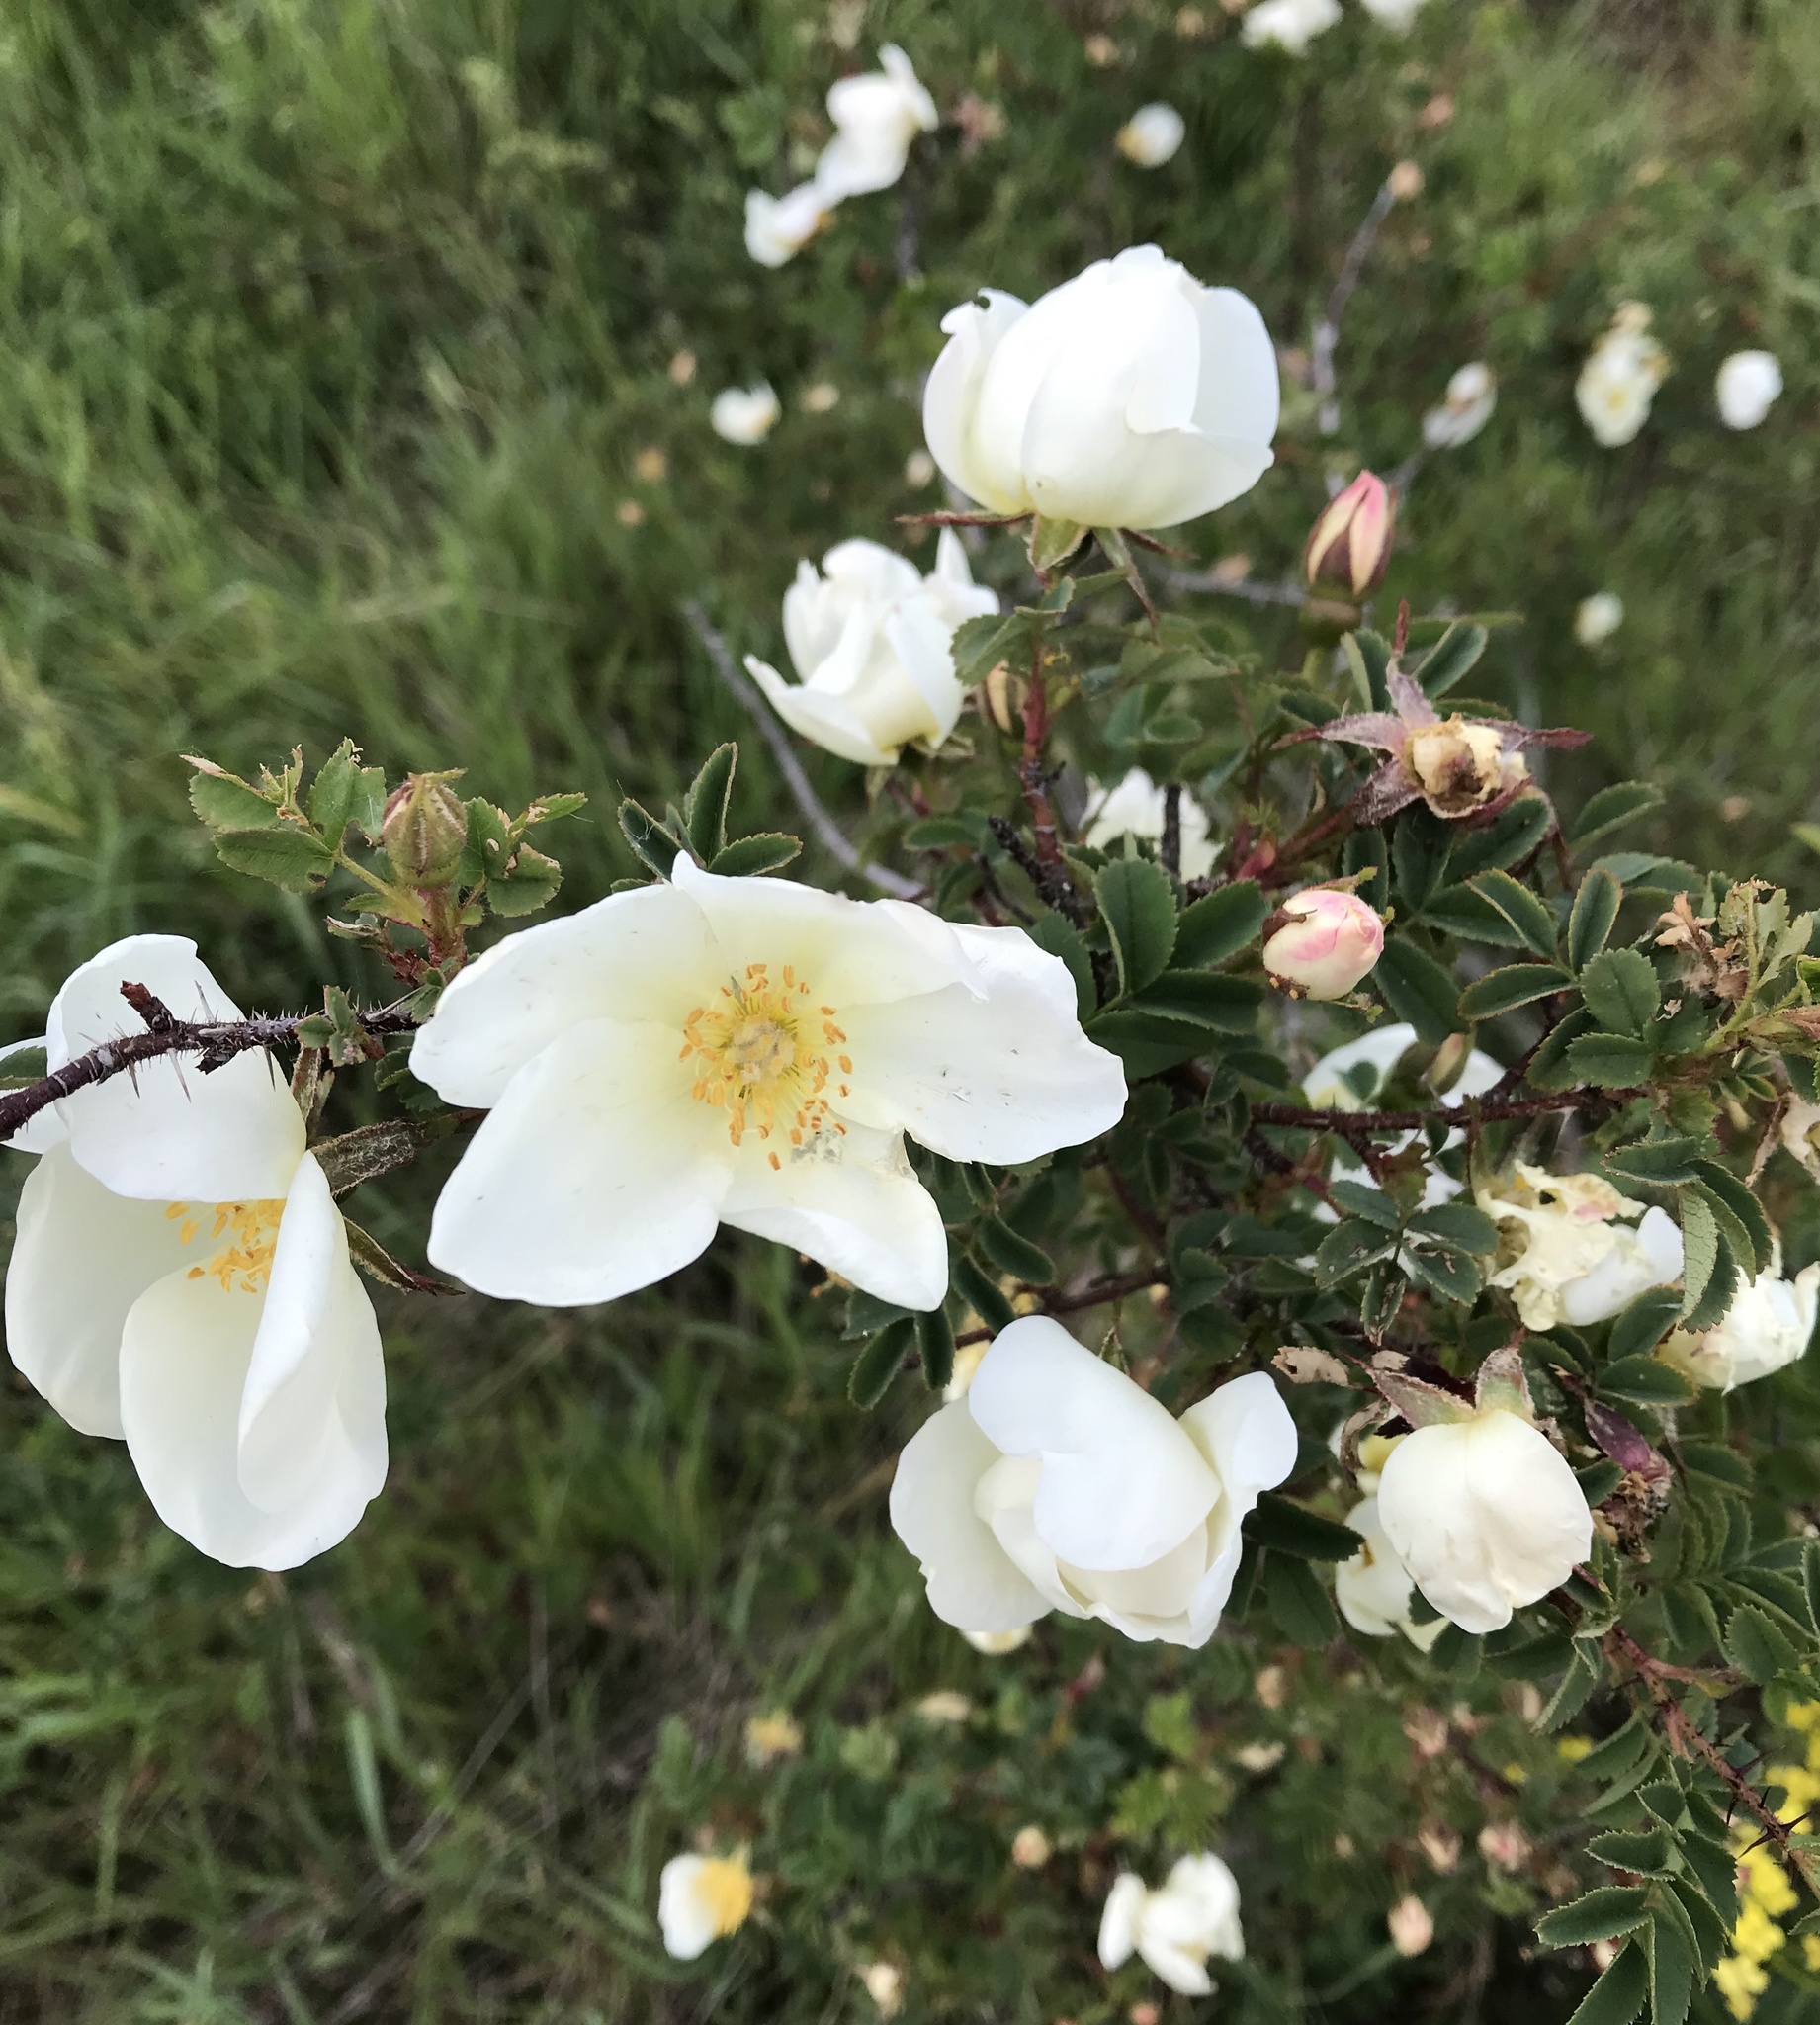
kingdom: Plantae
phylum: Tracheophyta
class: Magnoliopsida
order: Rosales
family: Rosaceae
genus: Rosa
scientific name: Rosa spinosissima
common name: Burnet rose
